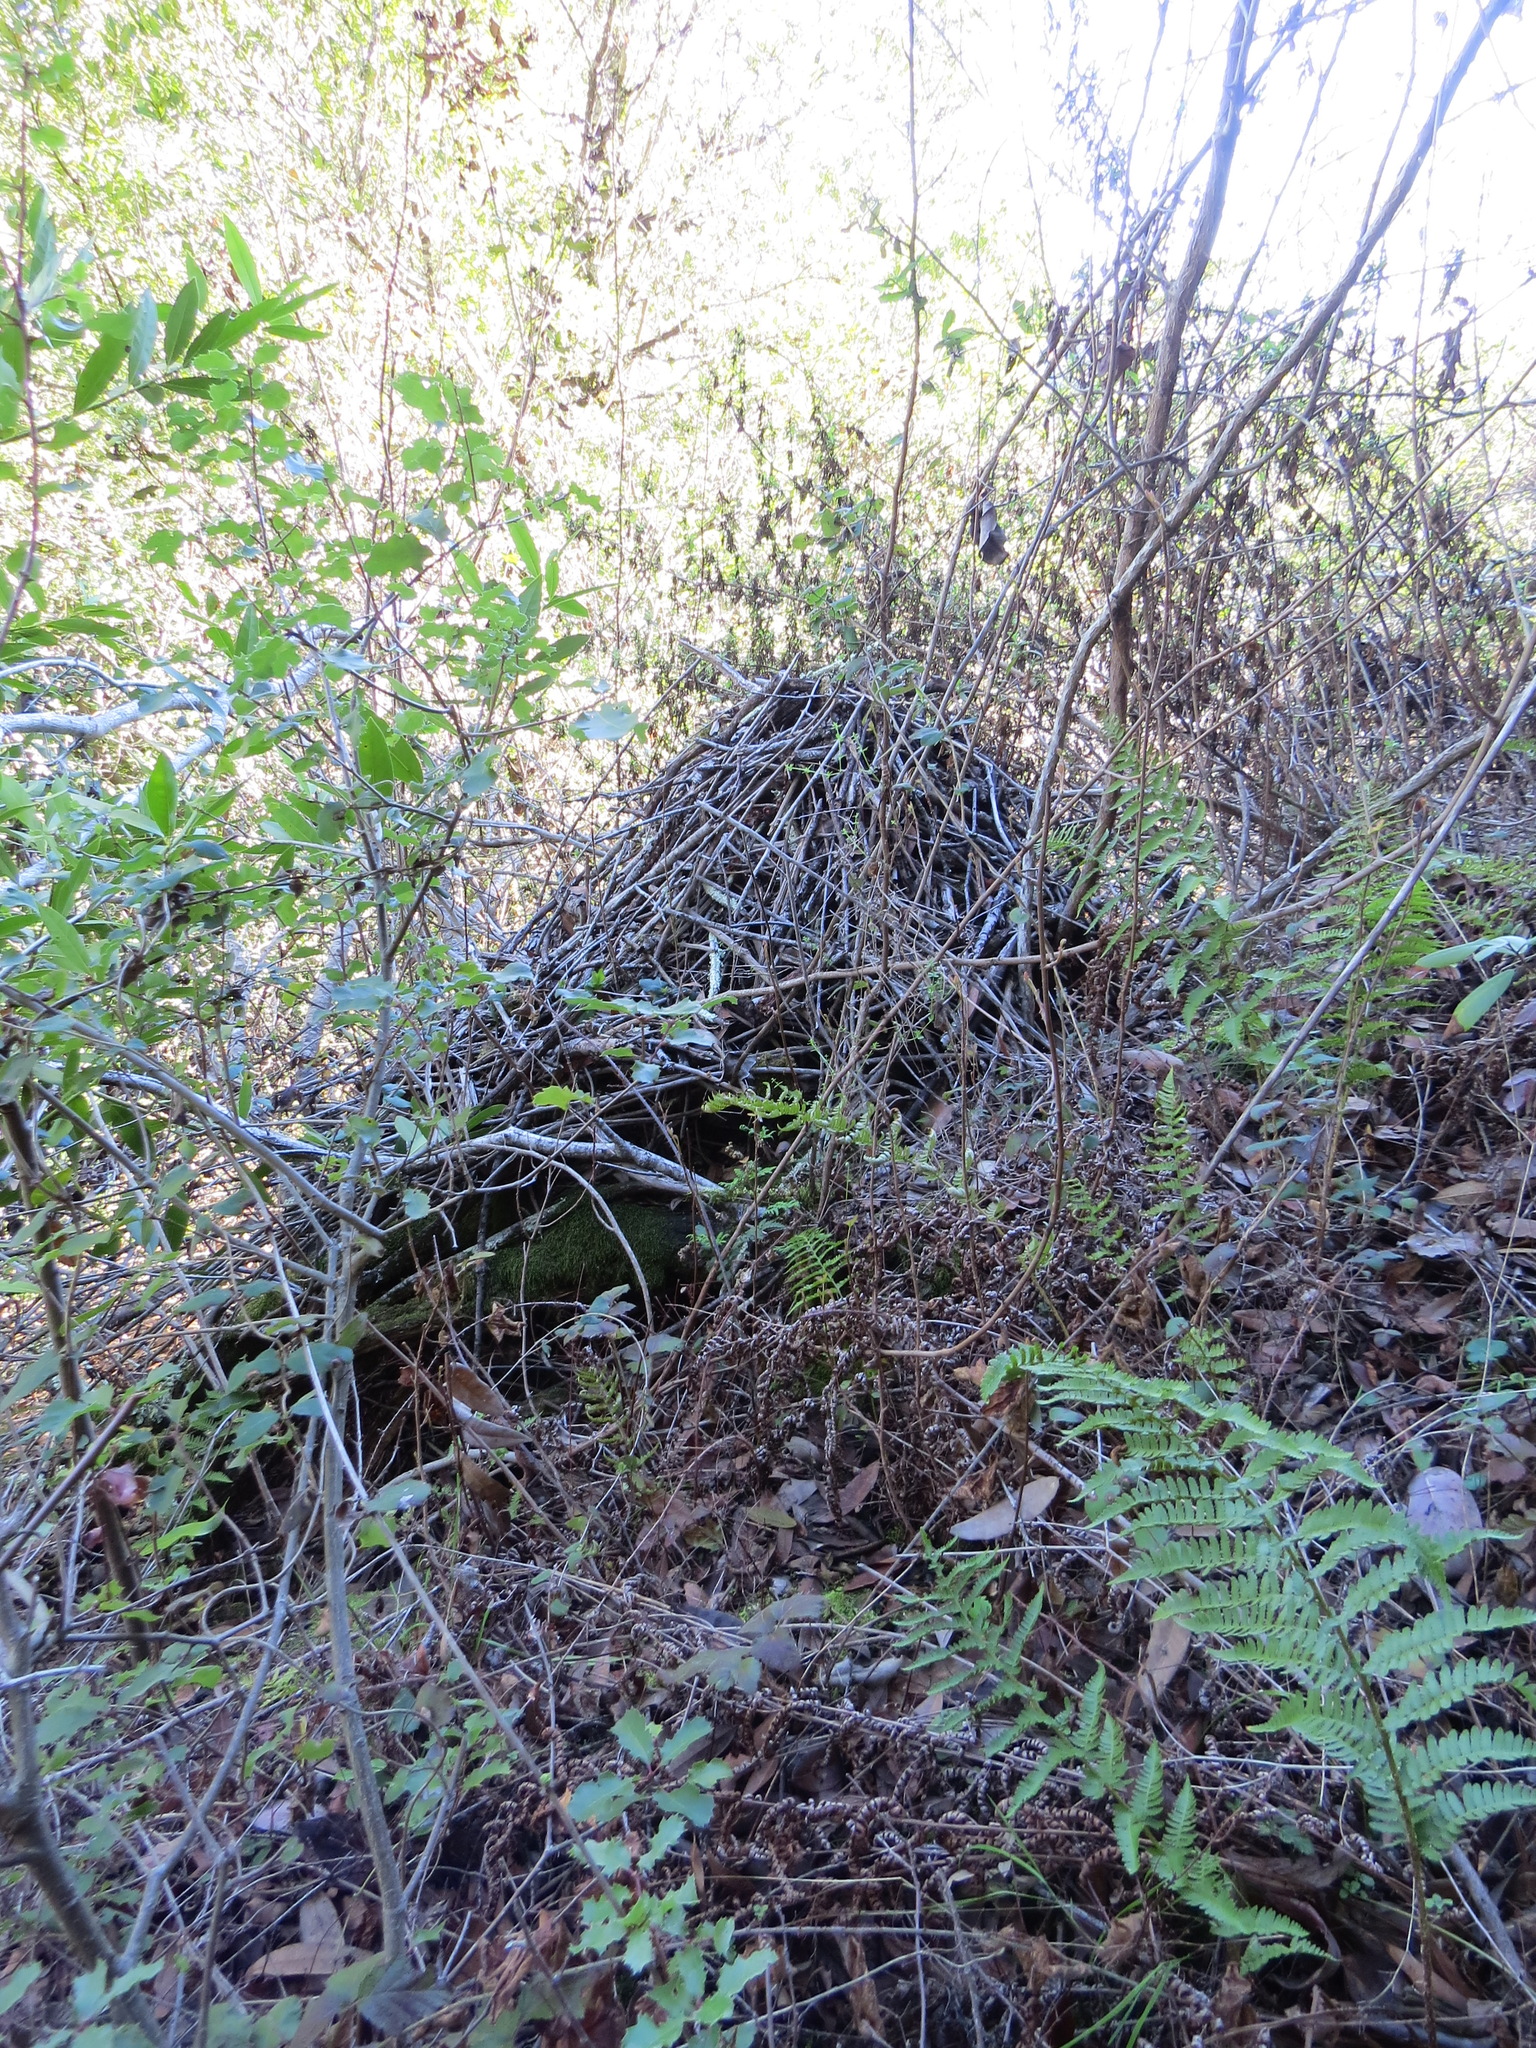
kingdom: Animalia
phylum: Chordata
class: Mammalia
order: Rodentia
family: Cricetidae
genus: Neotoma
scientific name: Neotoma fuscipes
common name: Dusky-footed woodrat
